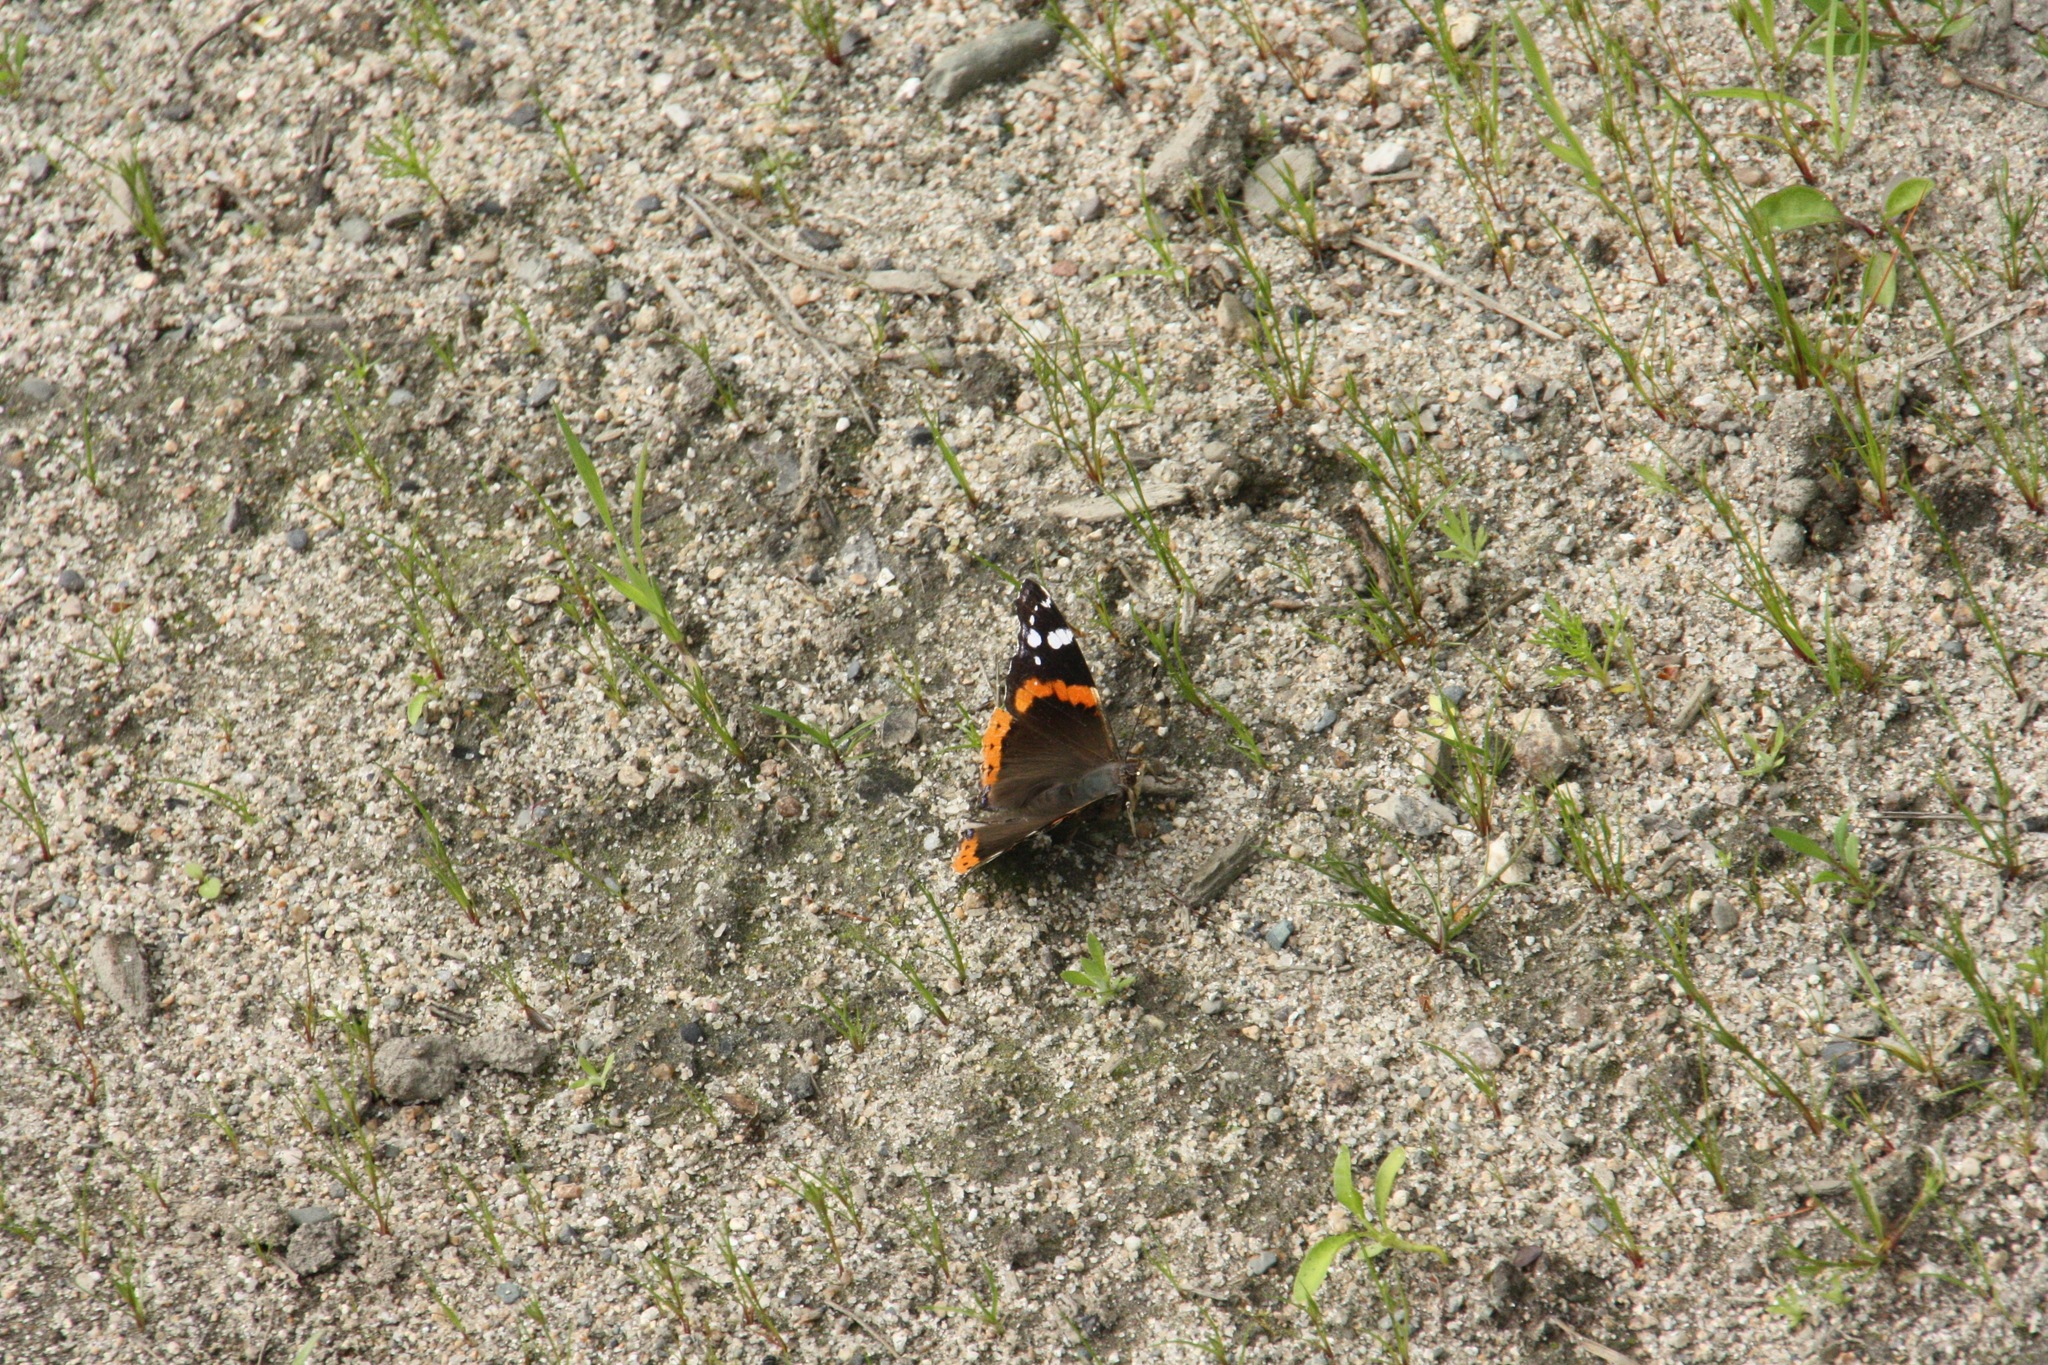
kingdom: Animalia
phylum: Arthropoda
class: Insecta
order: Lepidoptera
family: Nymphalidae
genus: Vanessa
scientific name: Vanessa atalanta
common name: Red admiral
